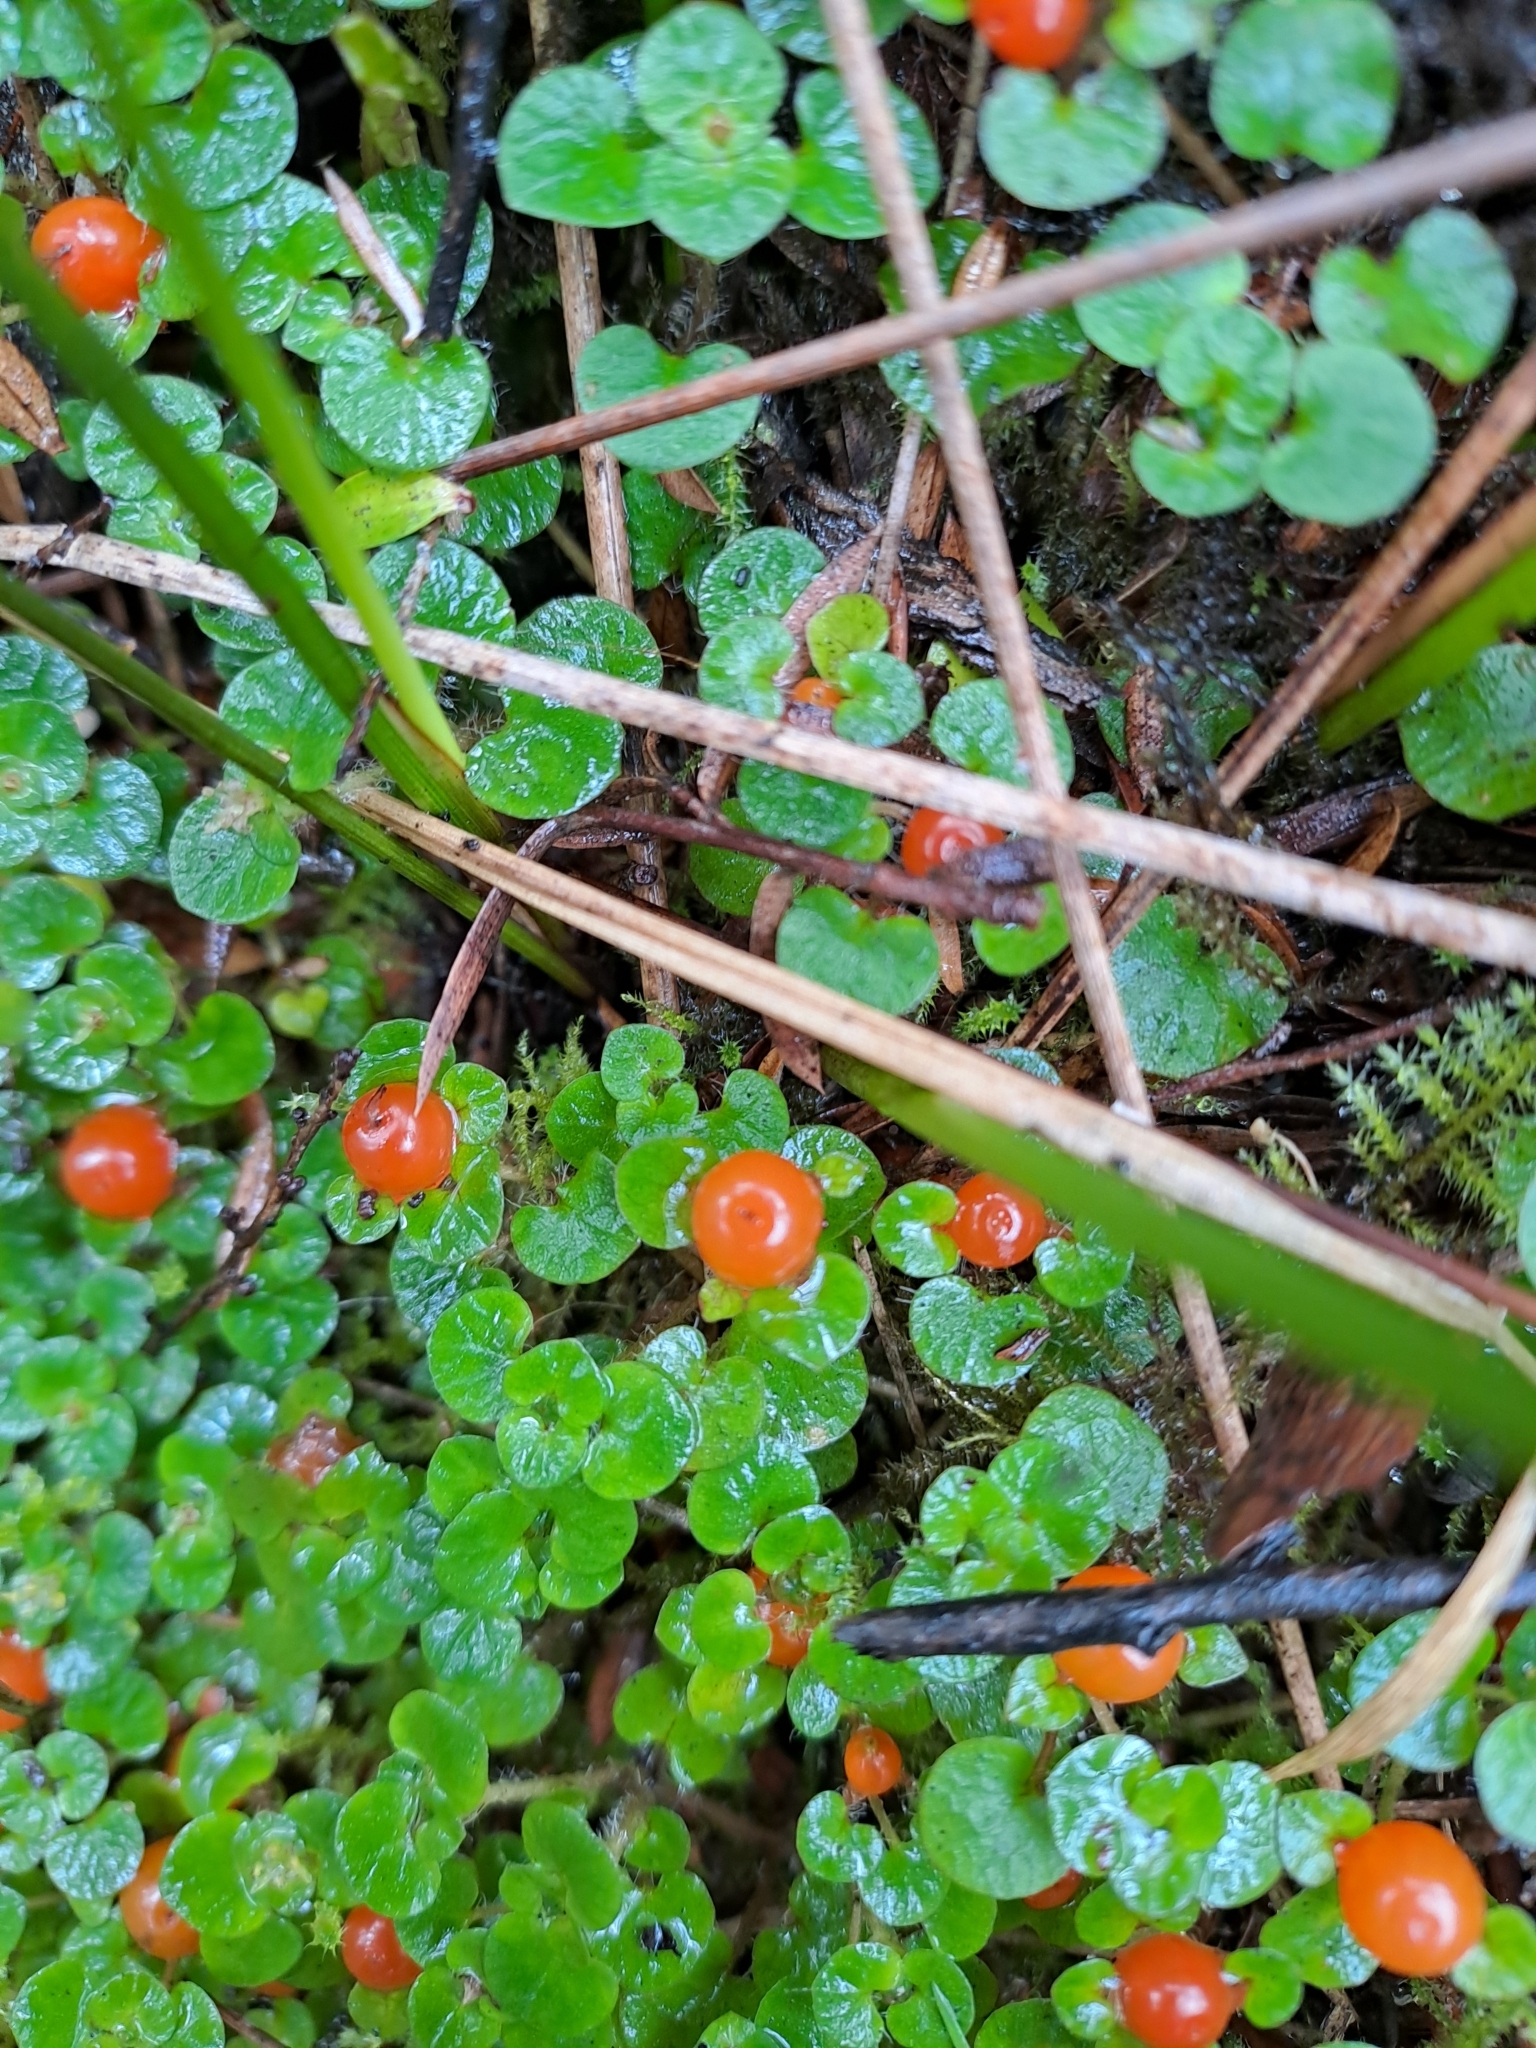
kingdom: Plantae
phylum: Tracheophyta
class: Magnoliopsida
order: Gentianales
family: Rubiaceae
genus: Nertera
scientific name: Nertera scapanioides
